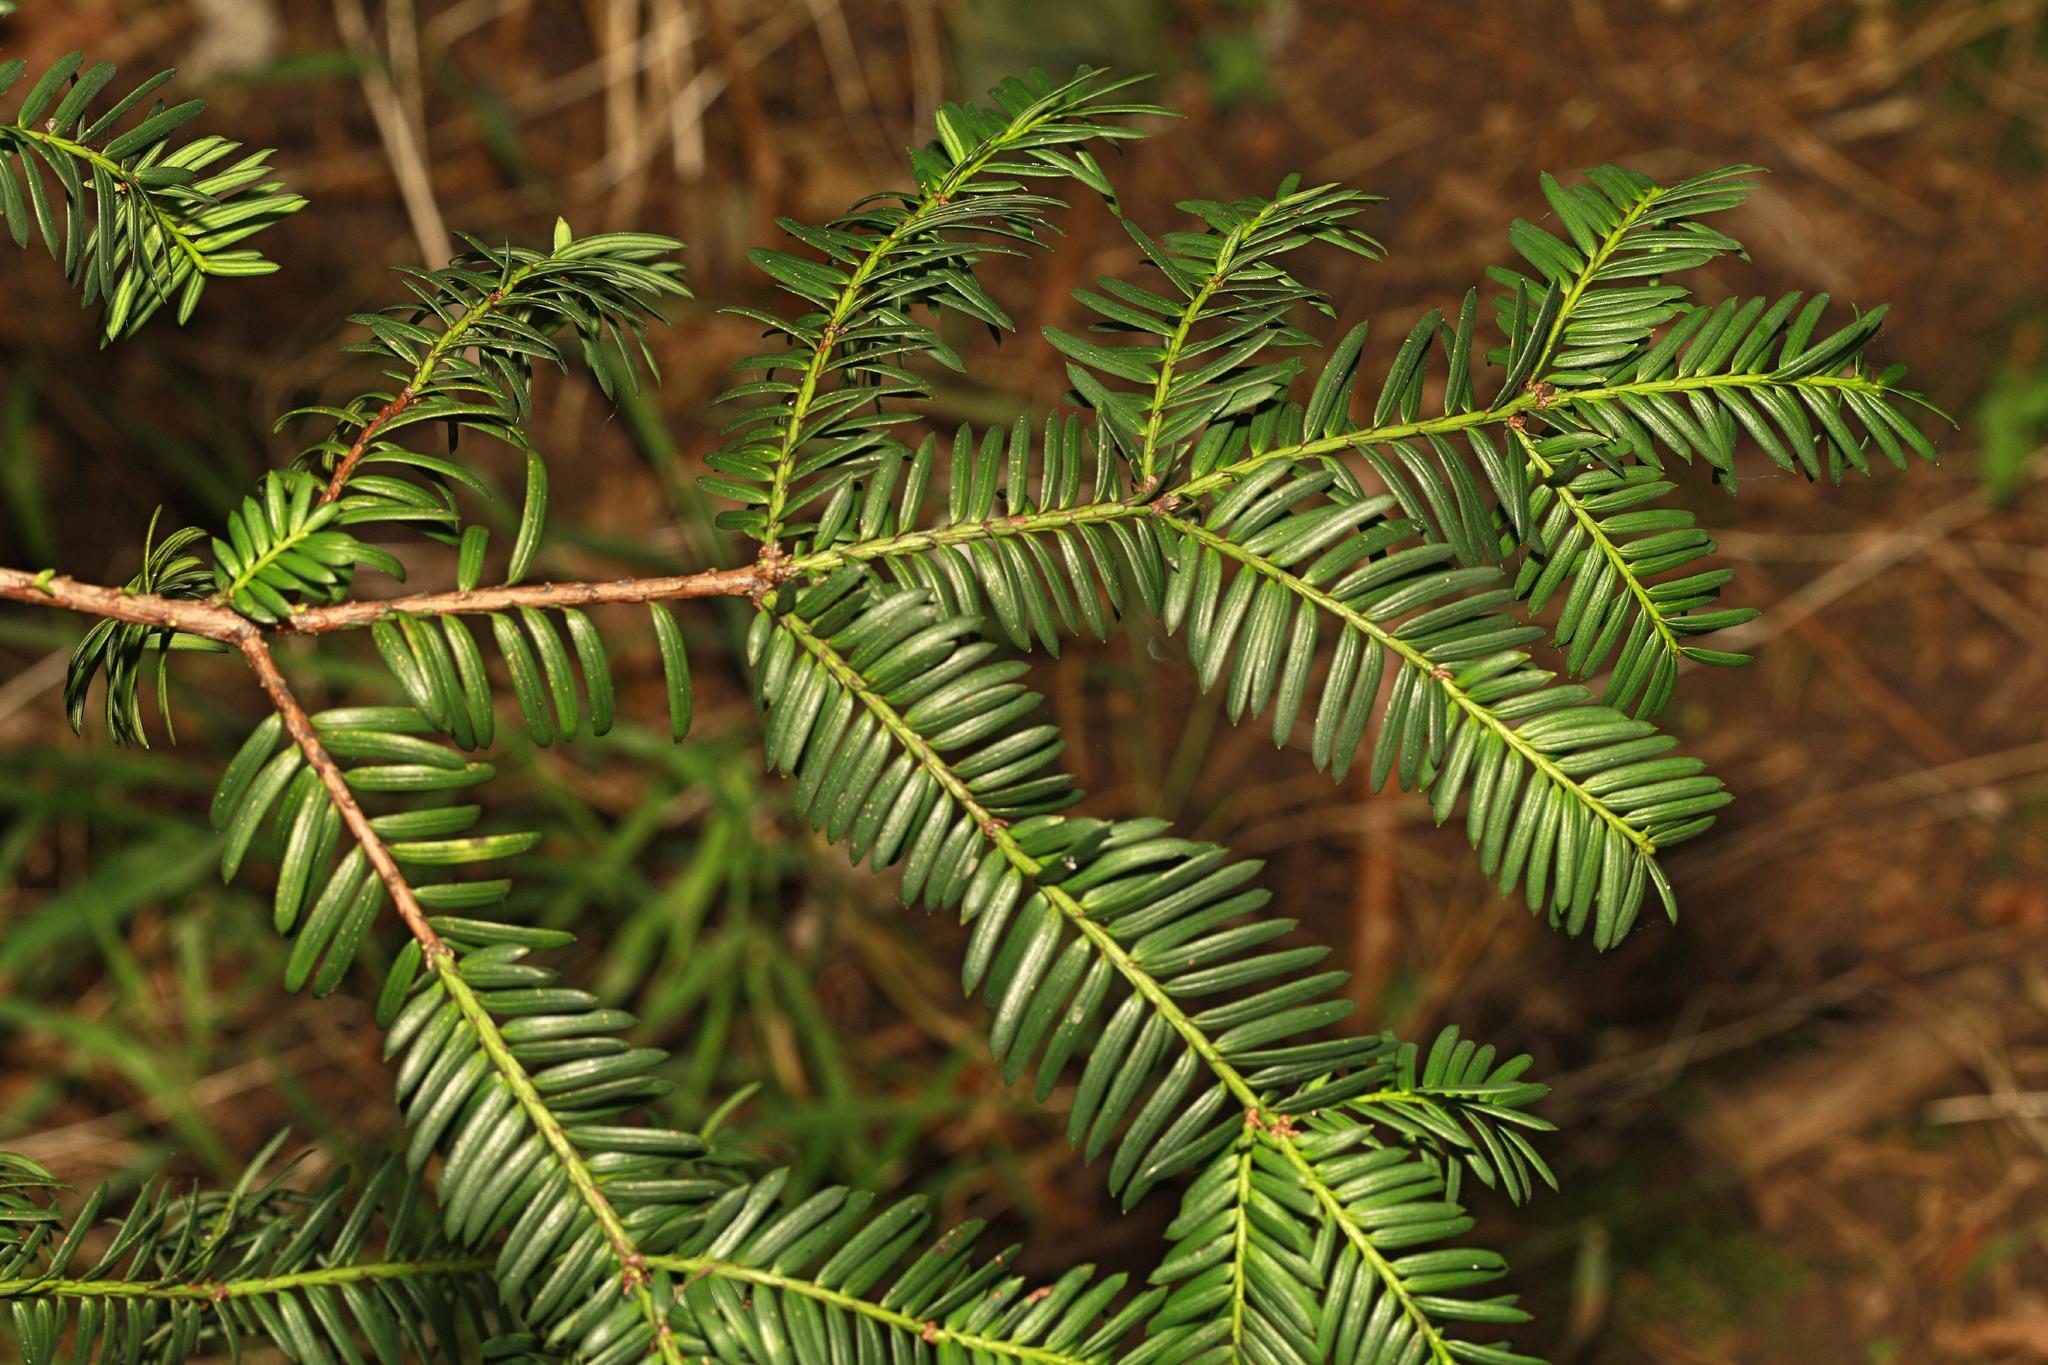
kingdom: Plantae
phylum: Tracheophyta
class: Pinopsida
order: Pinales
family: Taxaceae
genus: Taxus
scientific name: Taxus baccata
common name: Yew
